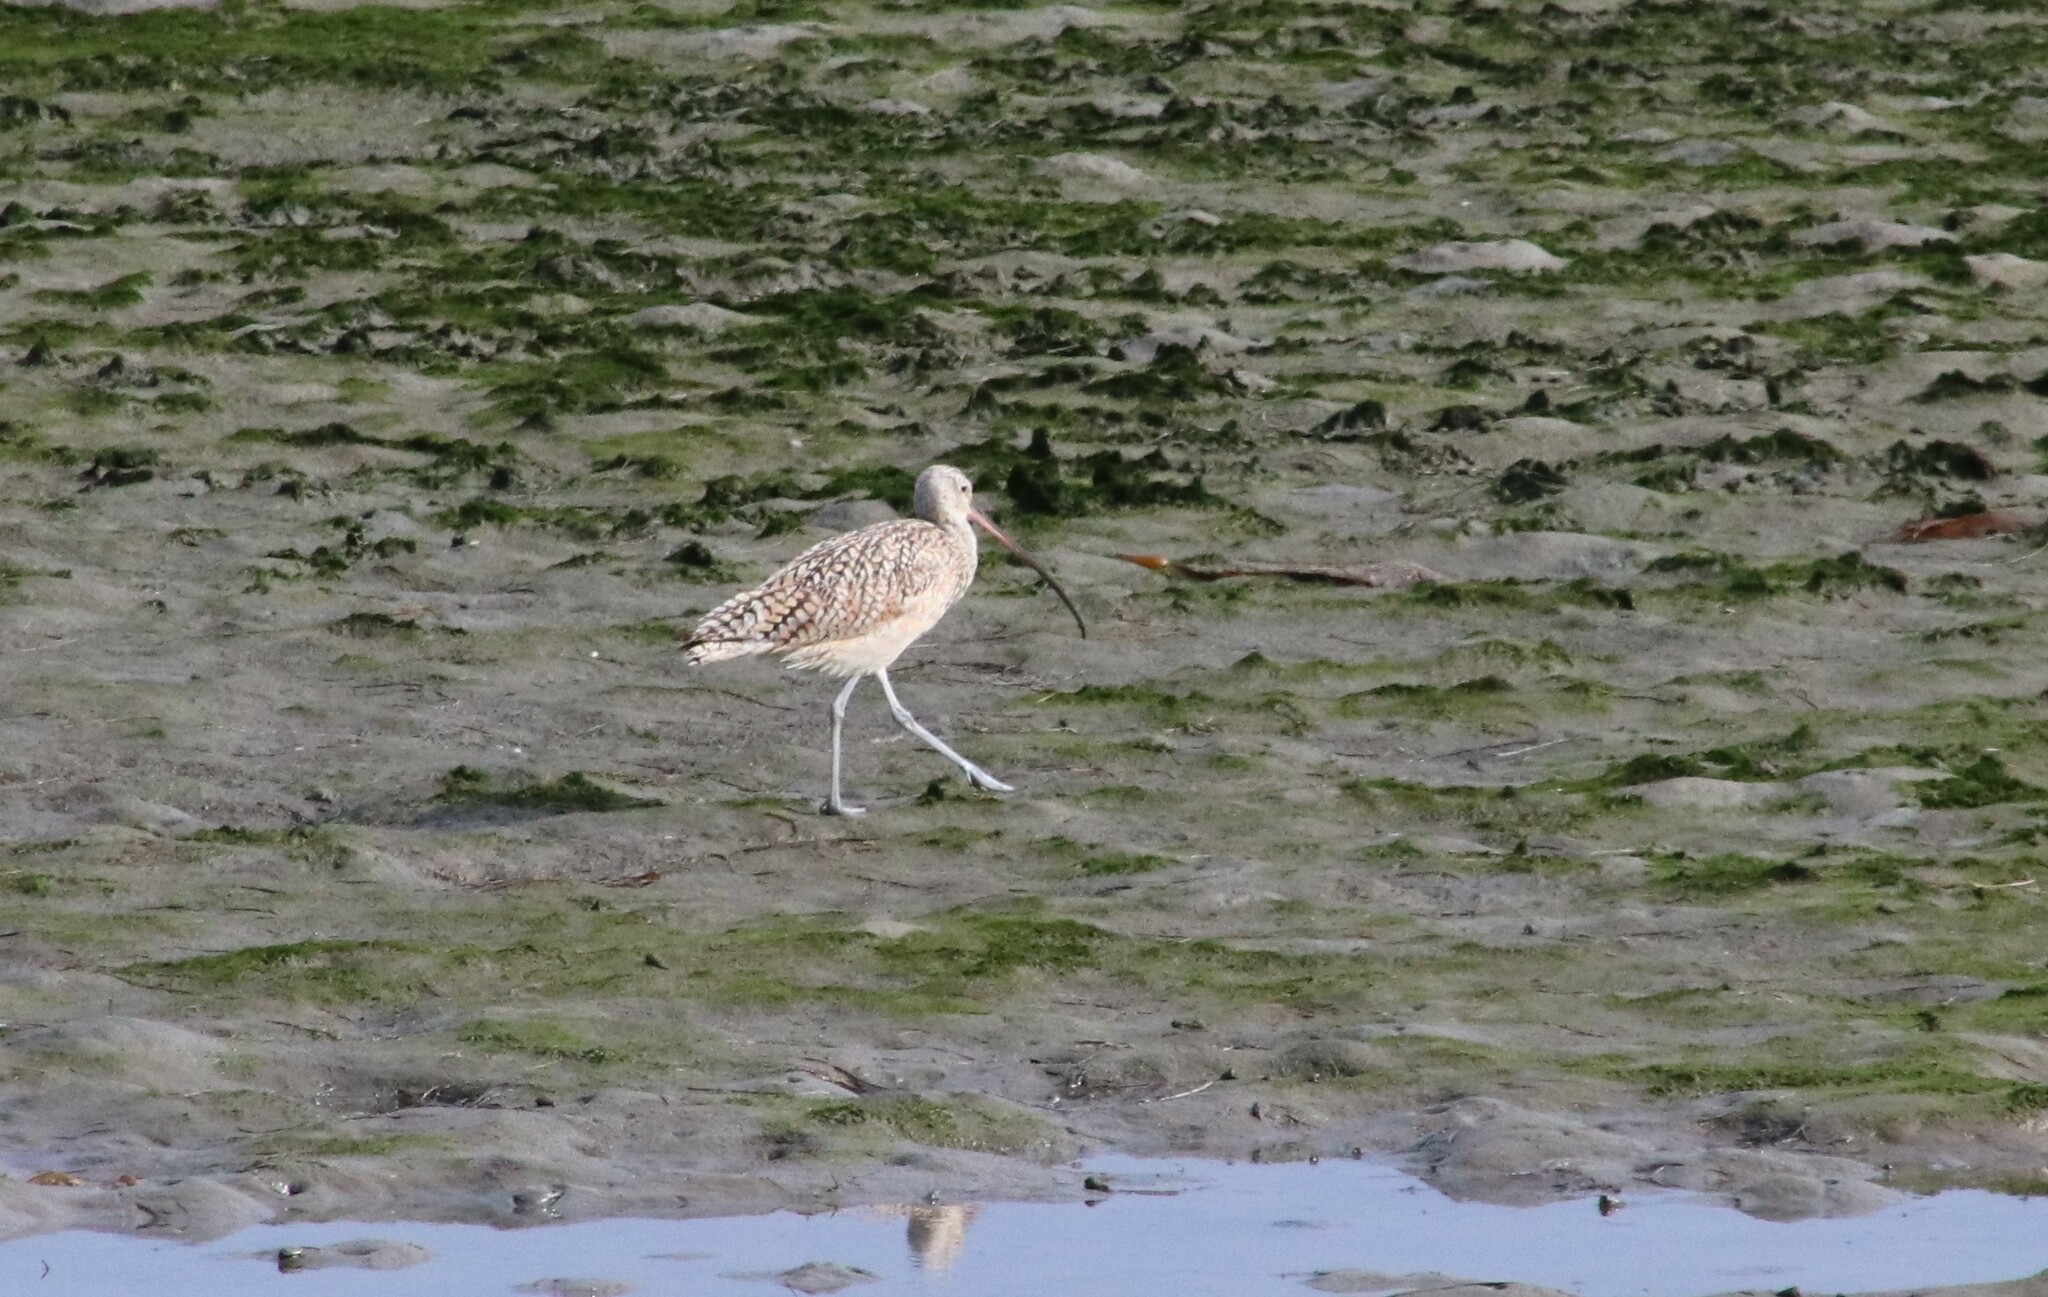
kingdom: Animalia
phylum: Chordata
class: Aves
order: Charadriiformes
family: Scolopacidae
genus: Numenius
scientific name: Numenius americanus
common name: Long-billed curlew
